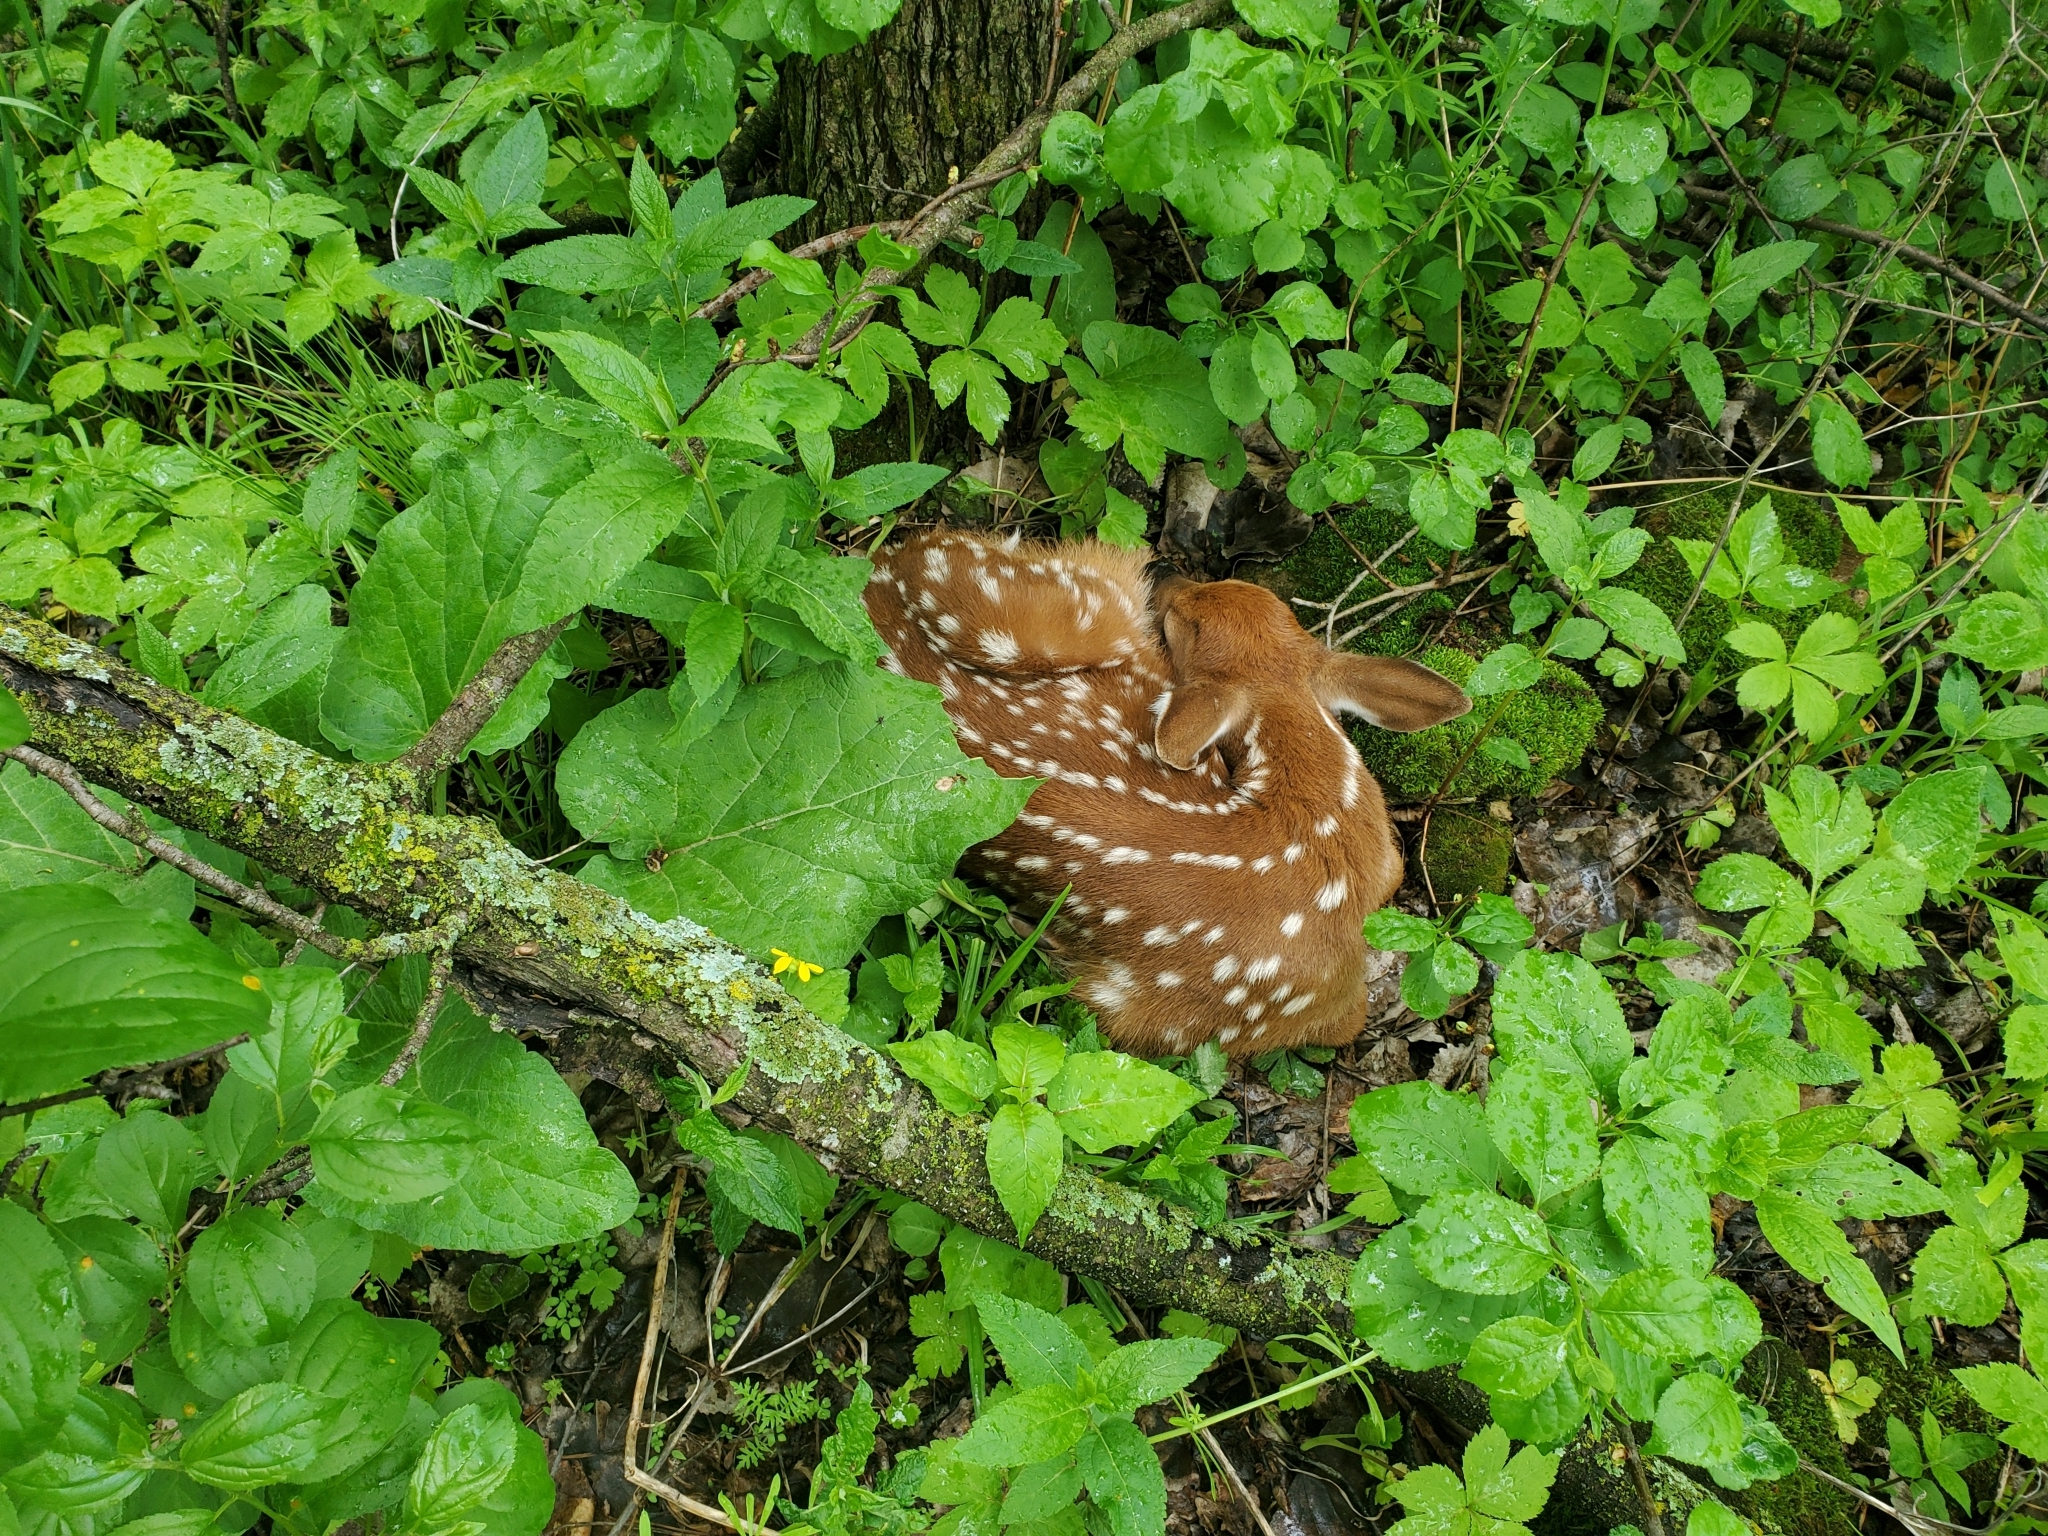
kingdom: Animalia
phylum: Chordata
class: Mammalia
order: Artiodactyla
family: Cervidae
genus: Odocoileus
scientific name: Odocoileus virginianus
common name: White-tailed deer
